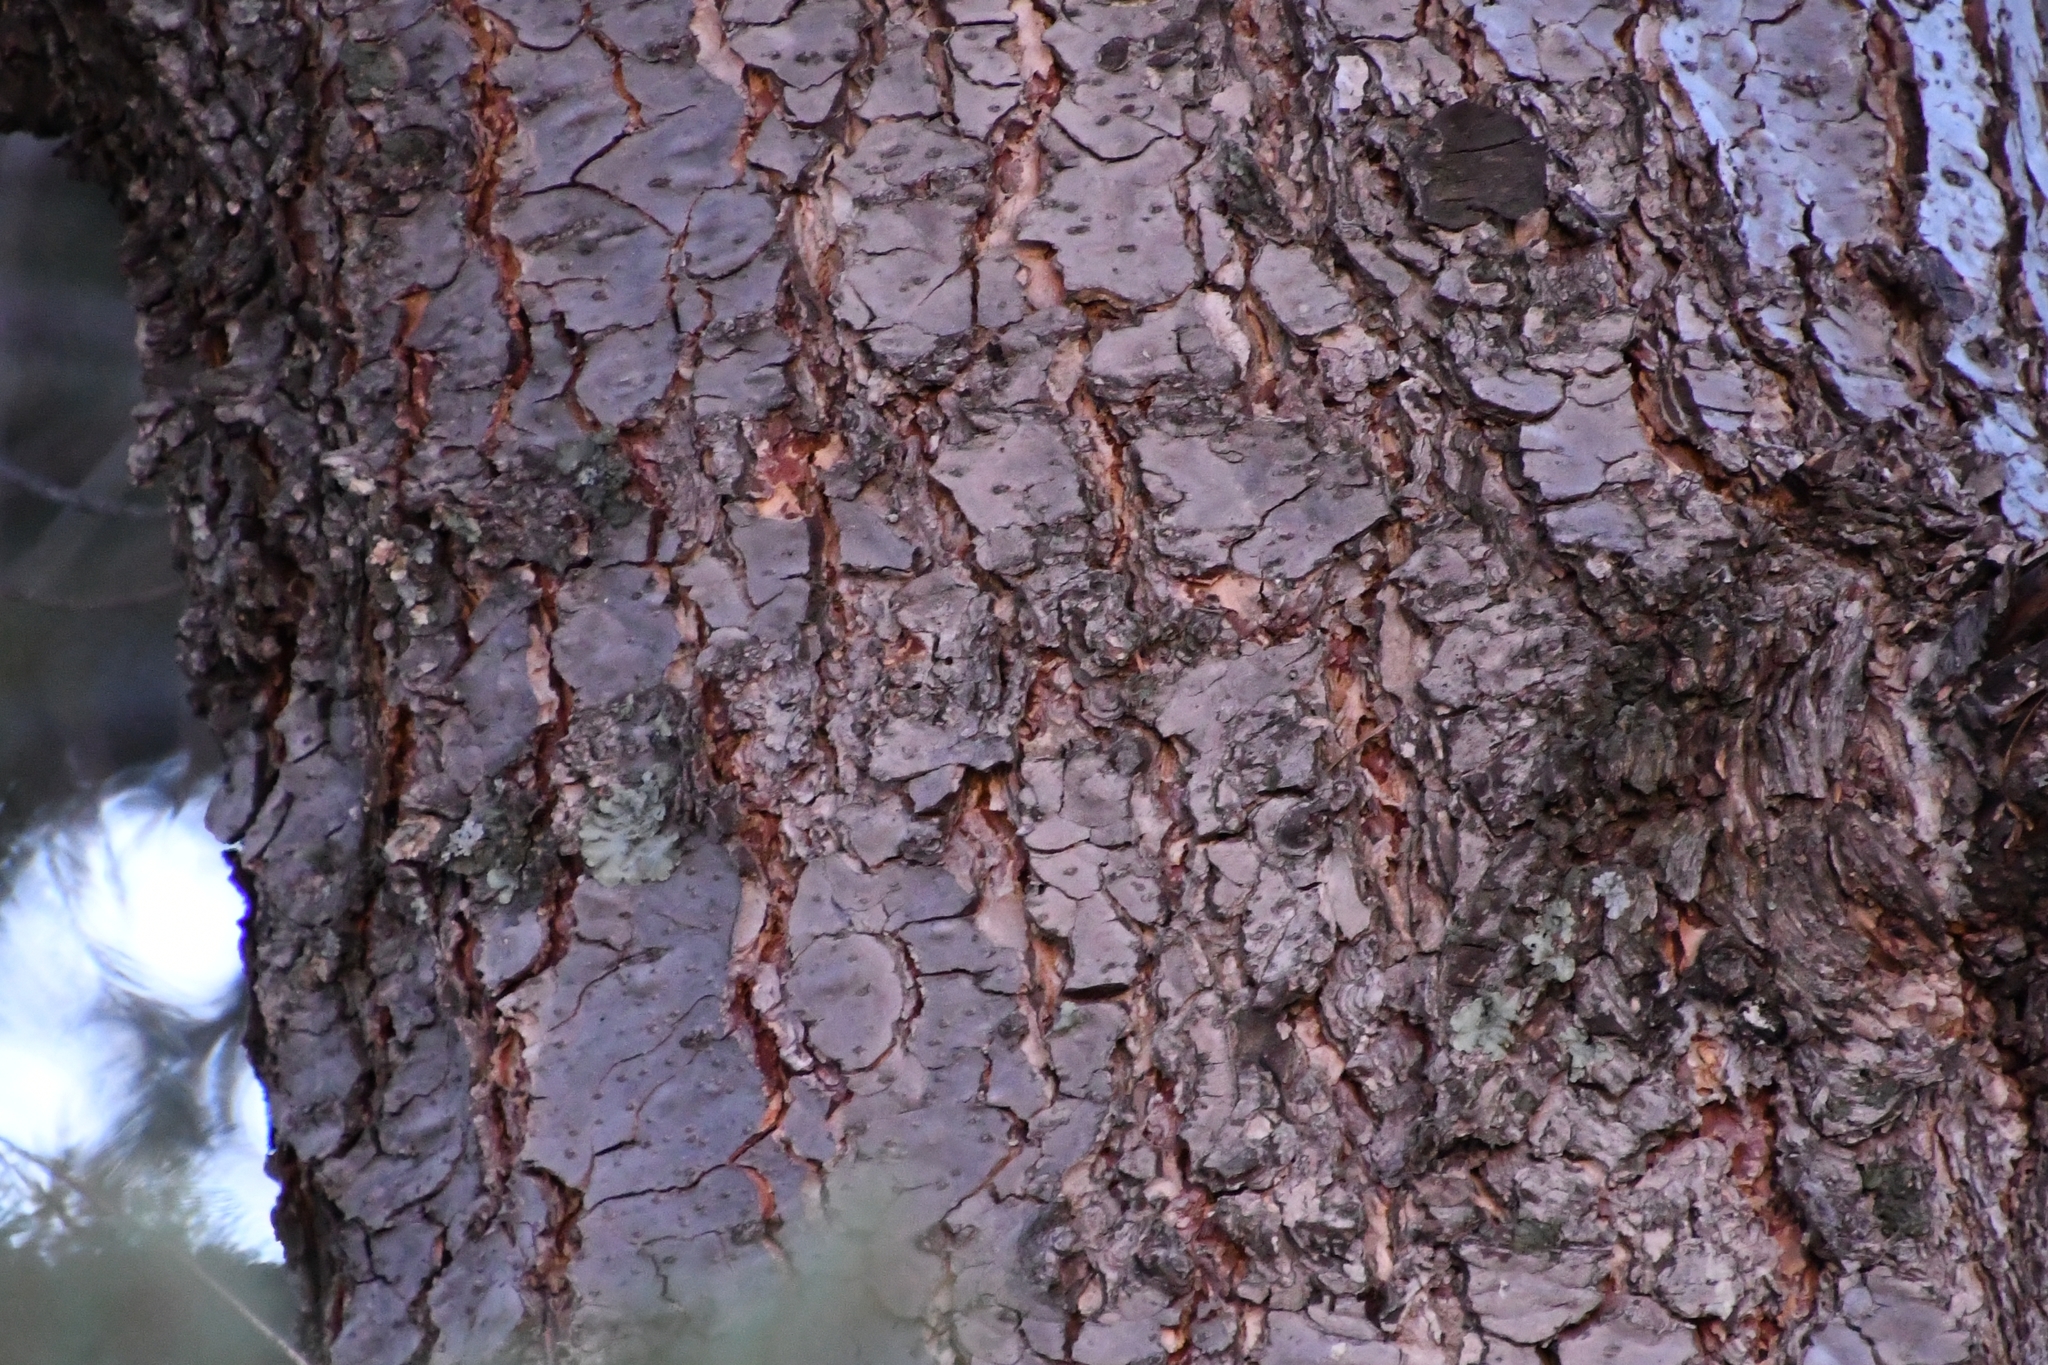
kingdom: Plantae
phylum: Tracheophyta
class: Pinopsida
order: Pinales
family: Pinaceae
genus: Pseudotsuga
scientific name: Pseudotsuga menziesii
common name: Douglas fir
